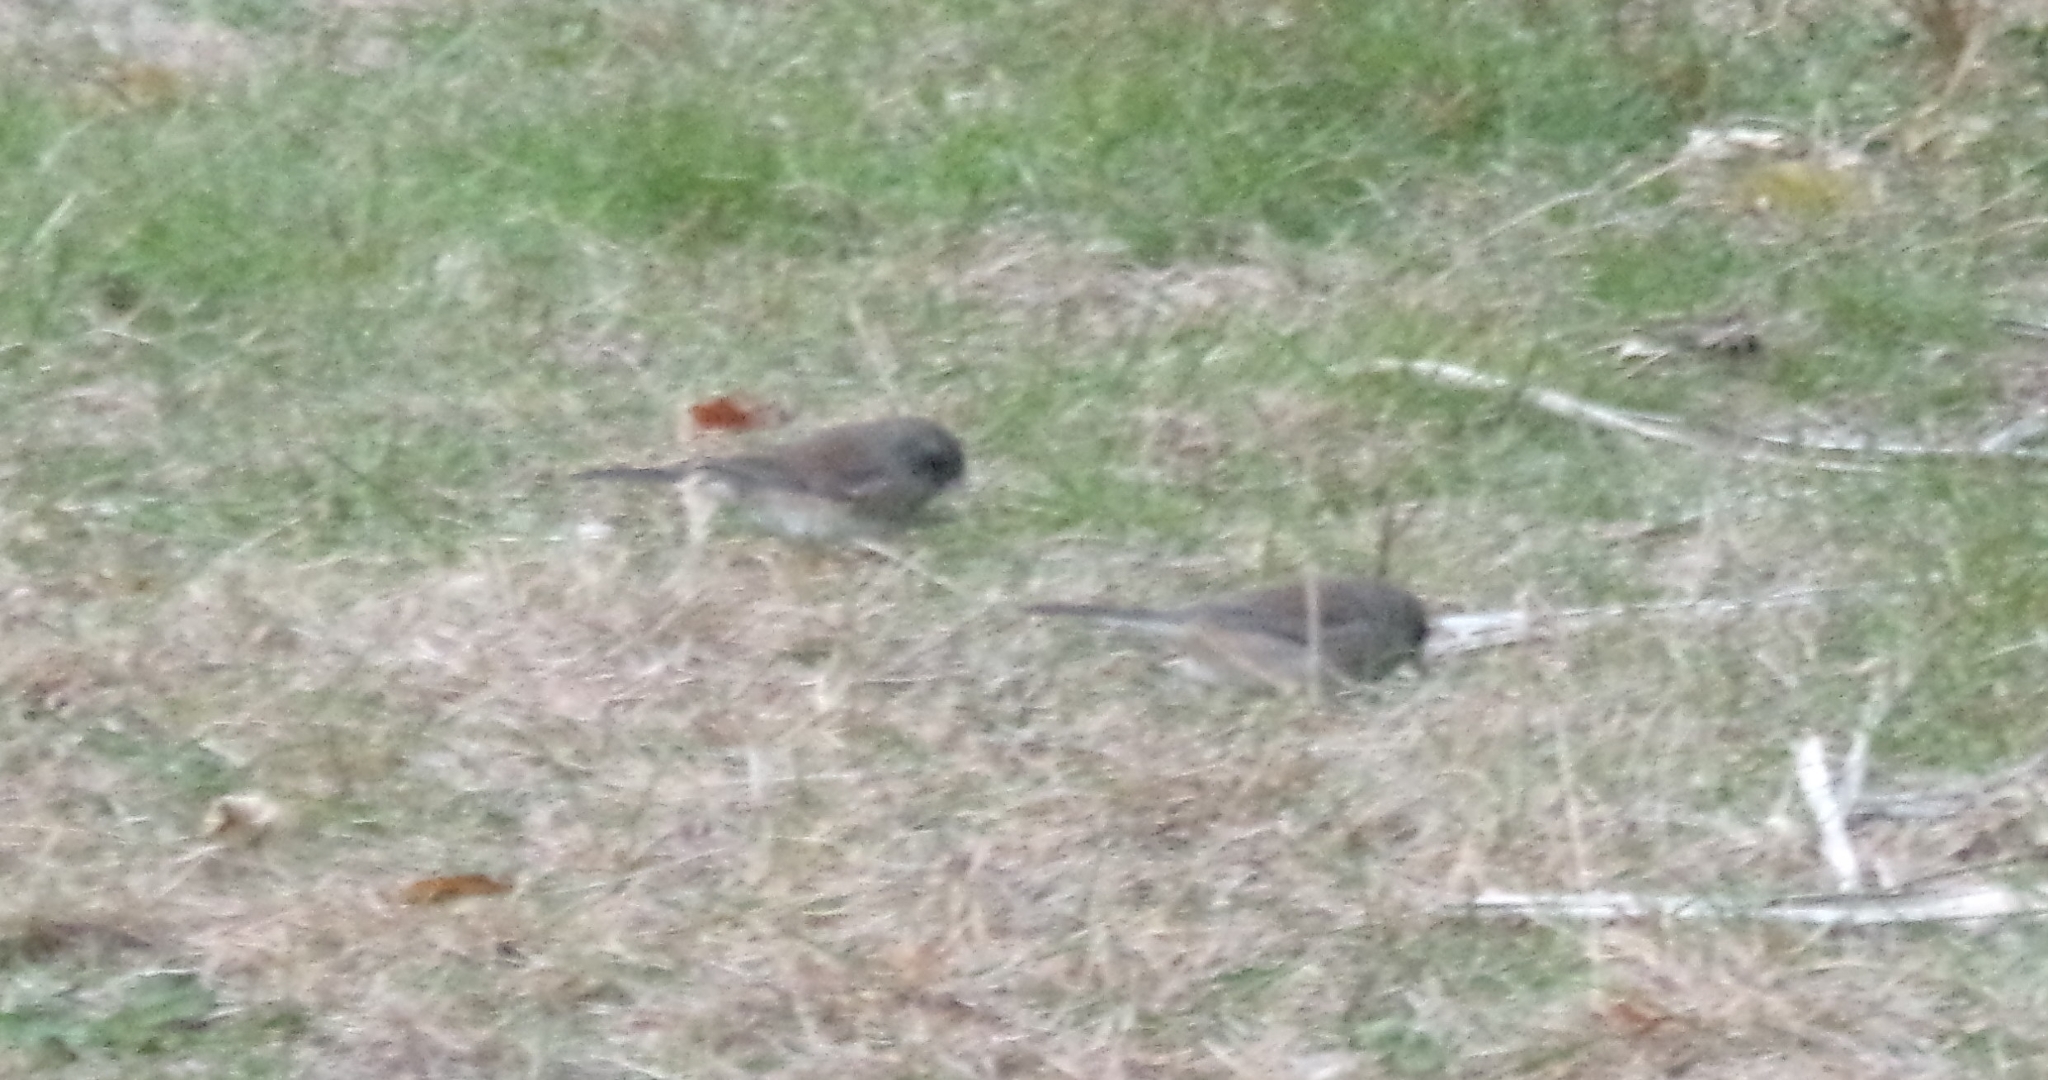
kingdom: Animalia
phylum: Chordata
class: Aves
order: Passeriformes
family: Passerellidae
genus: Junco
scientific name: Junco hyemalis
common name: Dark-eyed junco
